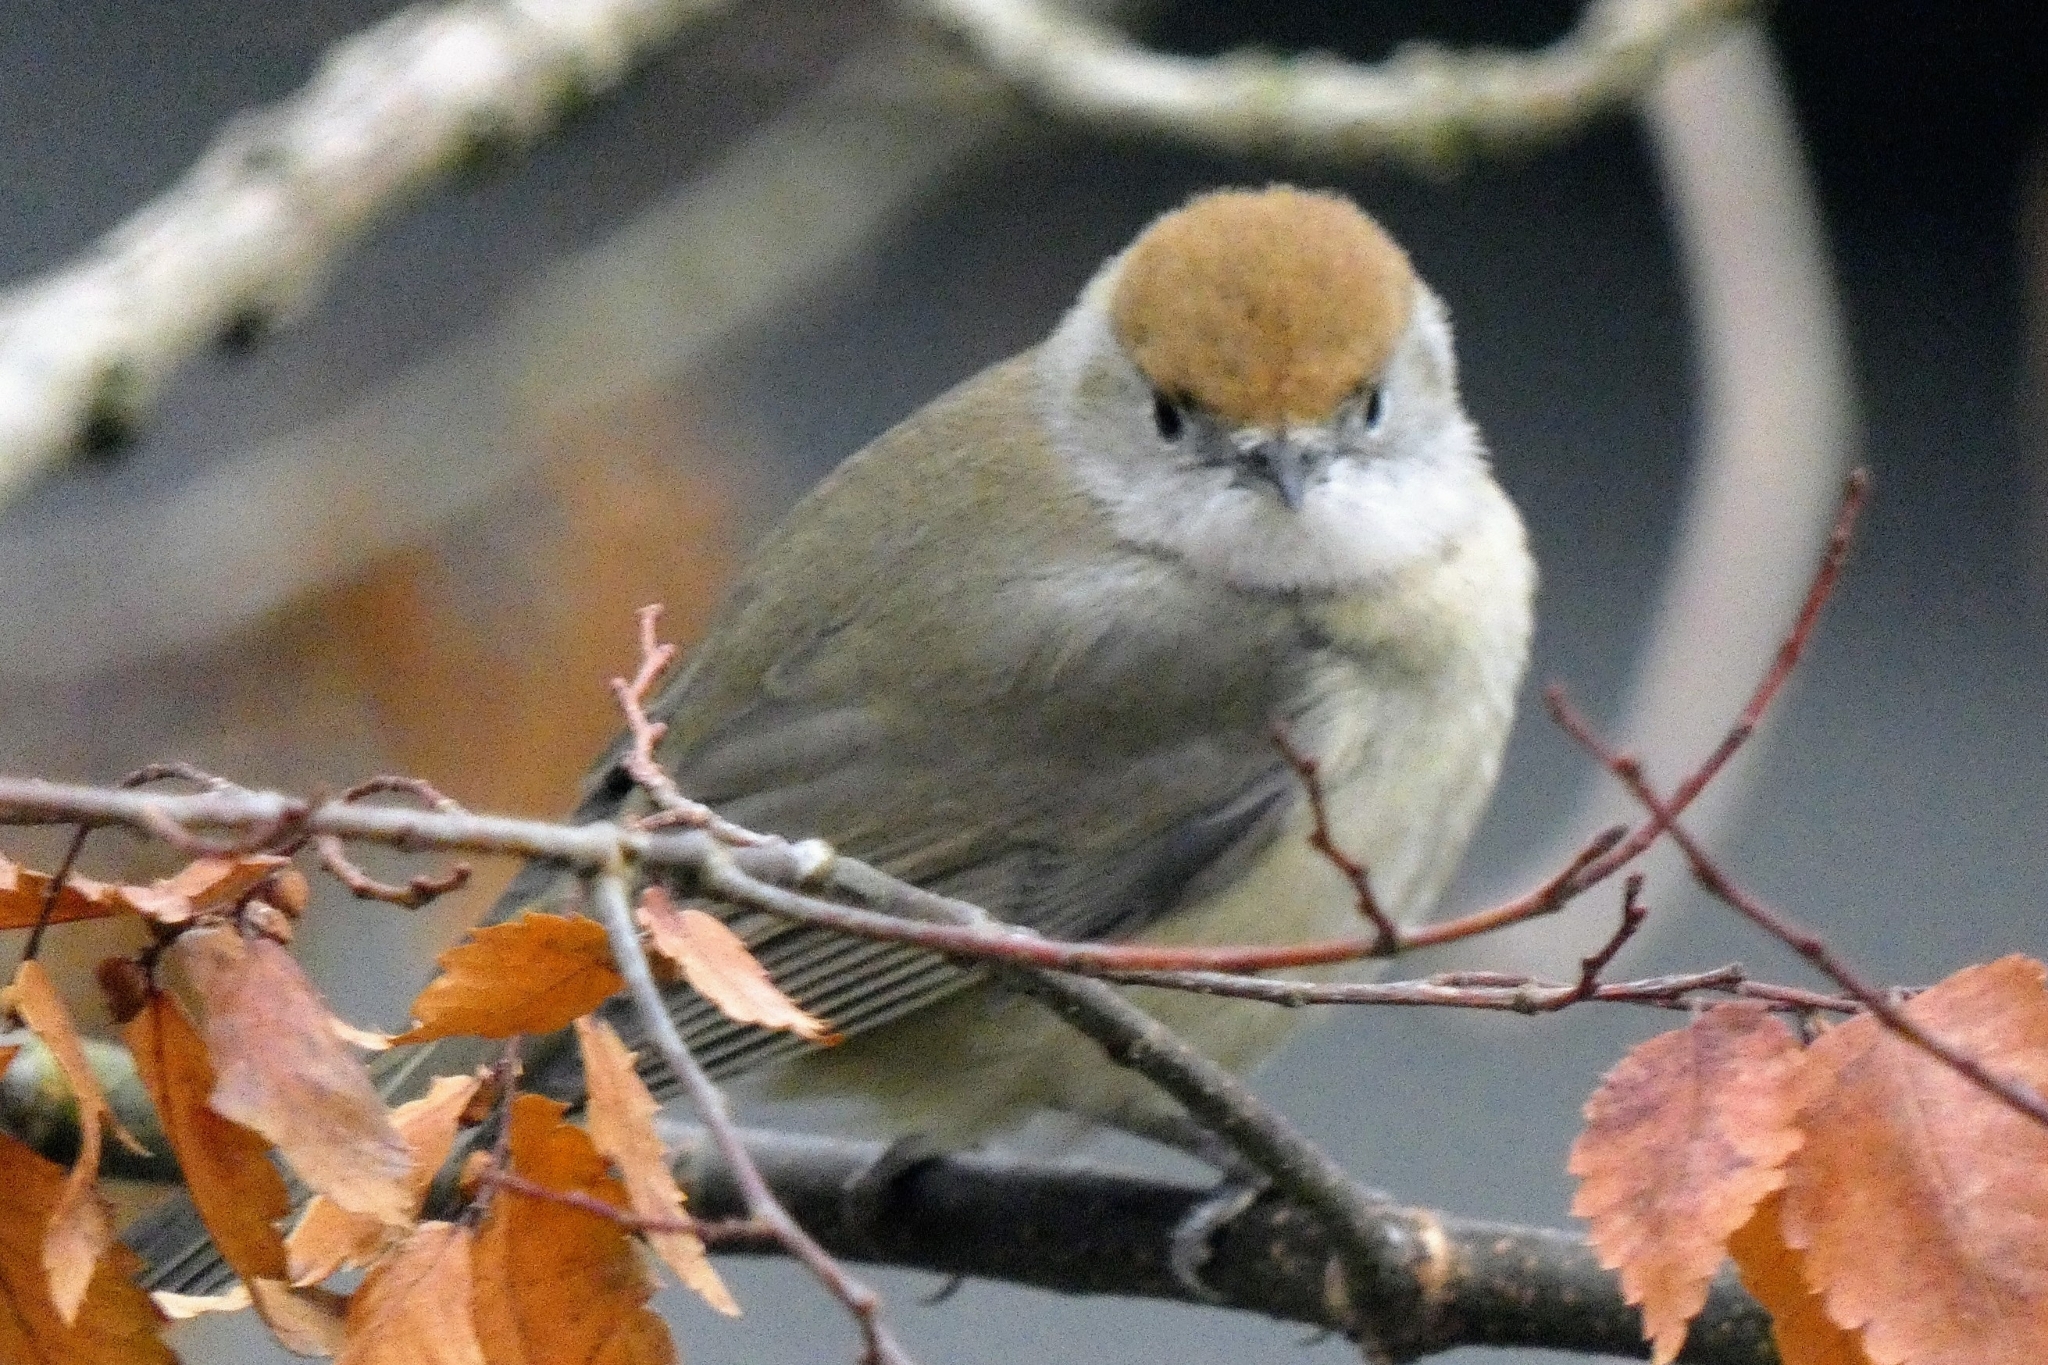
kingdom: Animalia
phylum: Chordata
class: Aves
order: Passeriformes
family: Sylviidae
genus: Sylvia
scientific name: Sylvia atricapilla
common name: Eurasian blackcap
